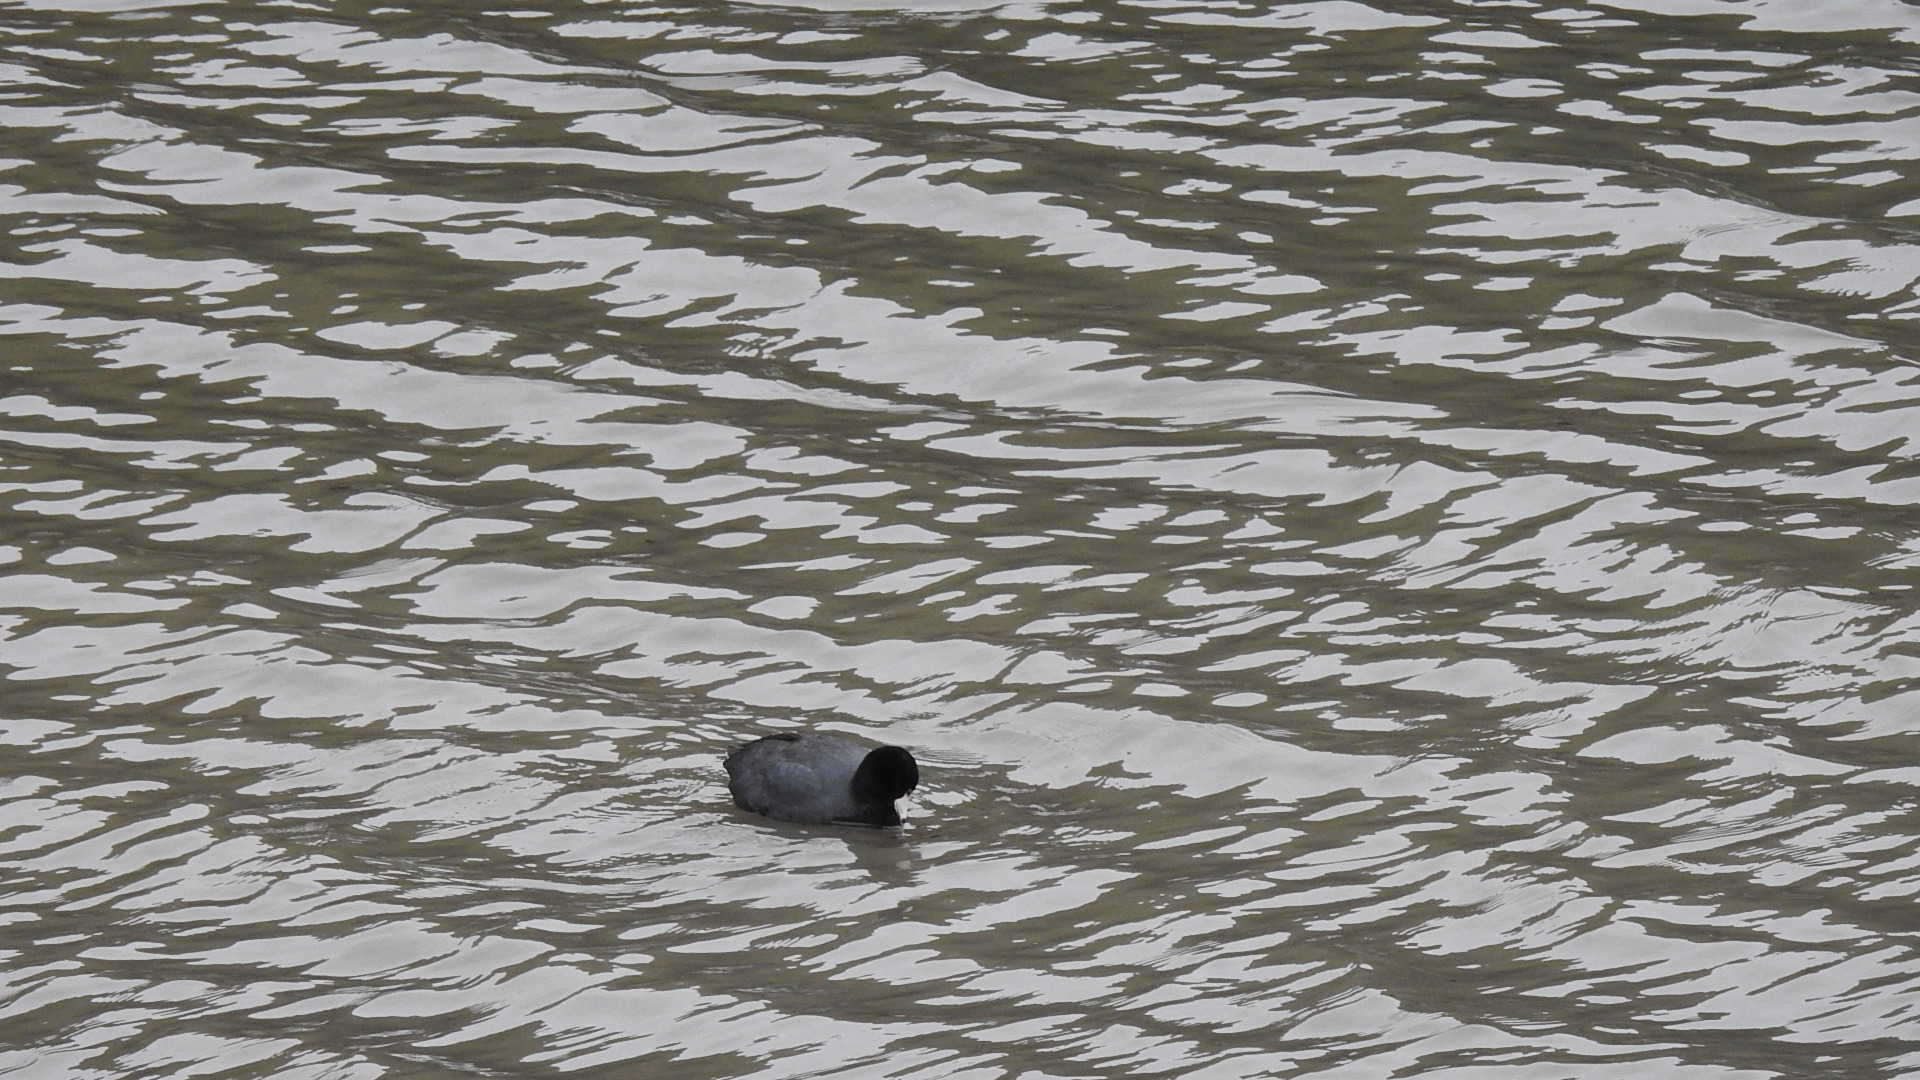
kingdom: Animalia
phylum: Chordata
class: Aves
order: Gruiformes
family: Rallidae
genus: Fulica
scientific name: Fulica americana
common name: American coot
